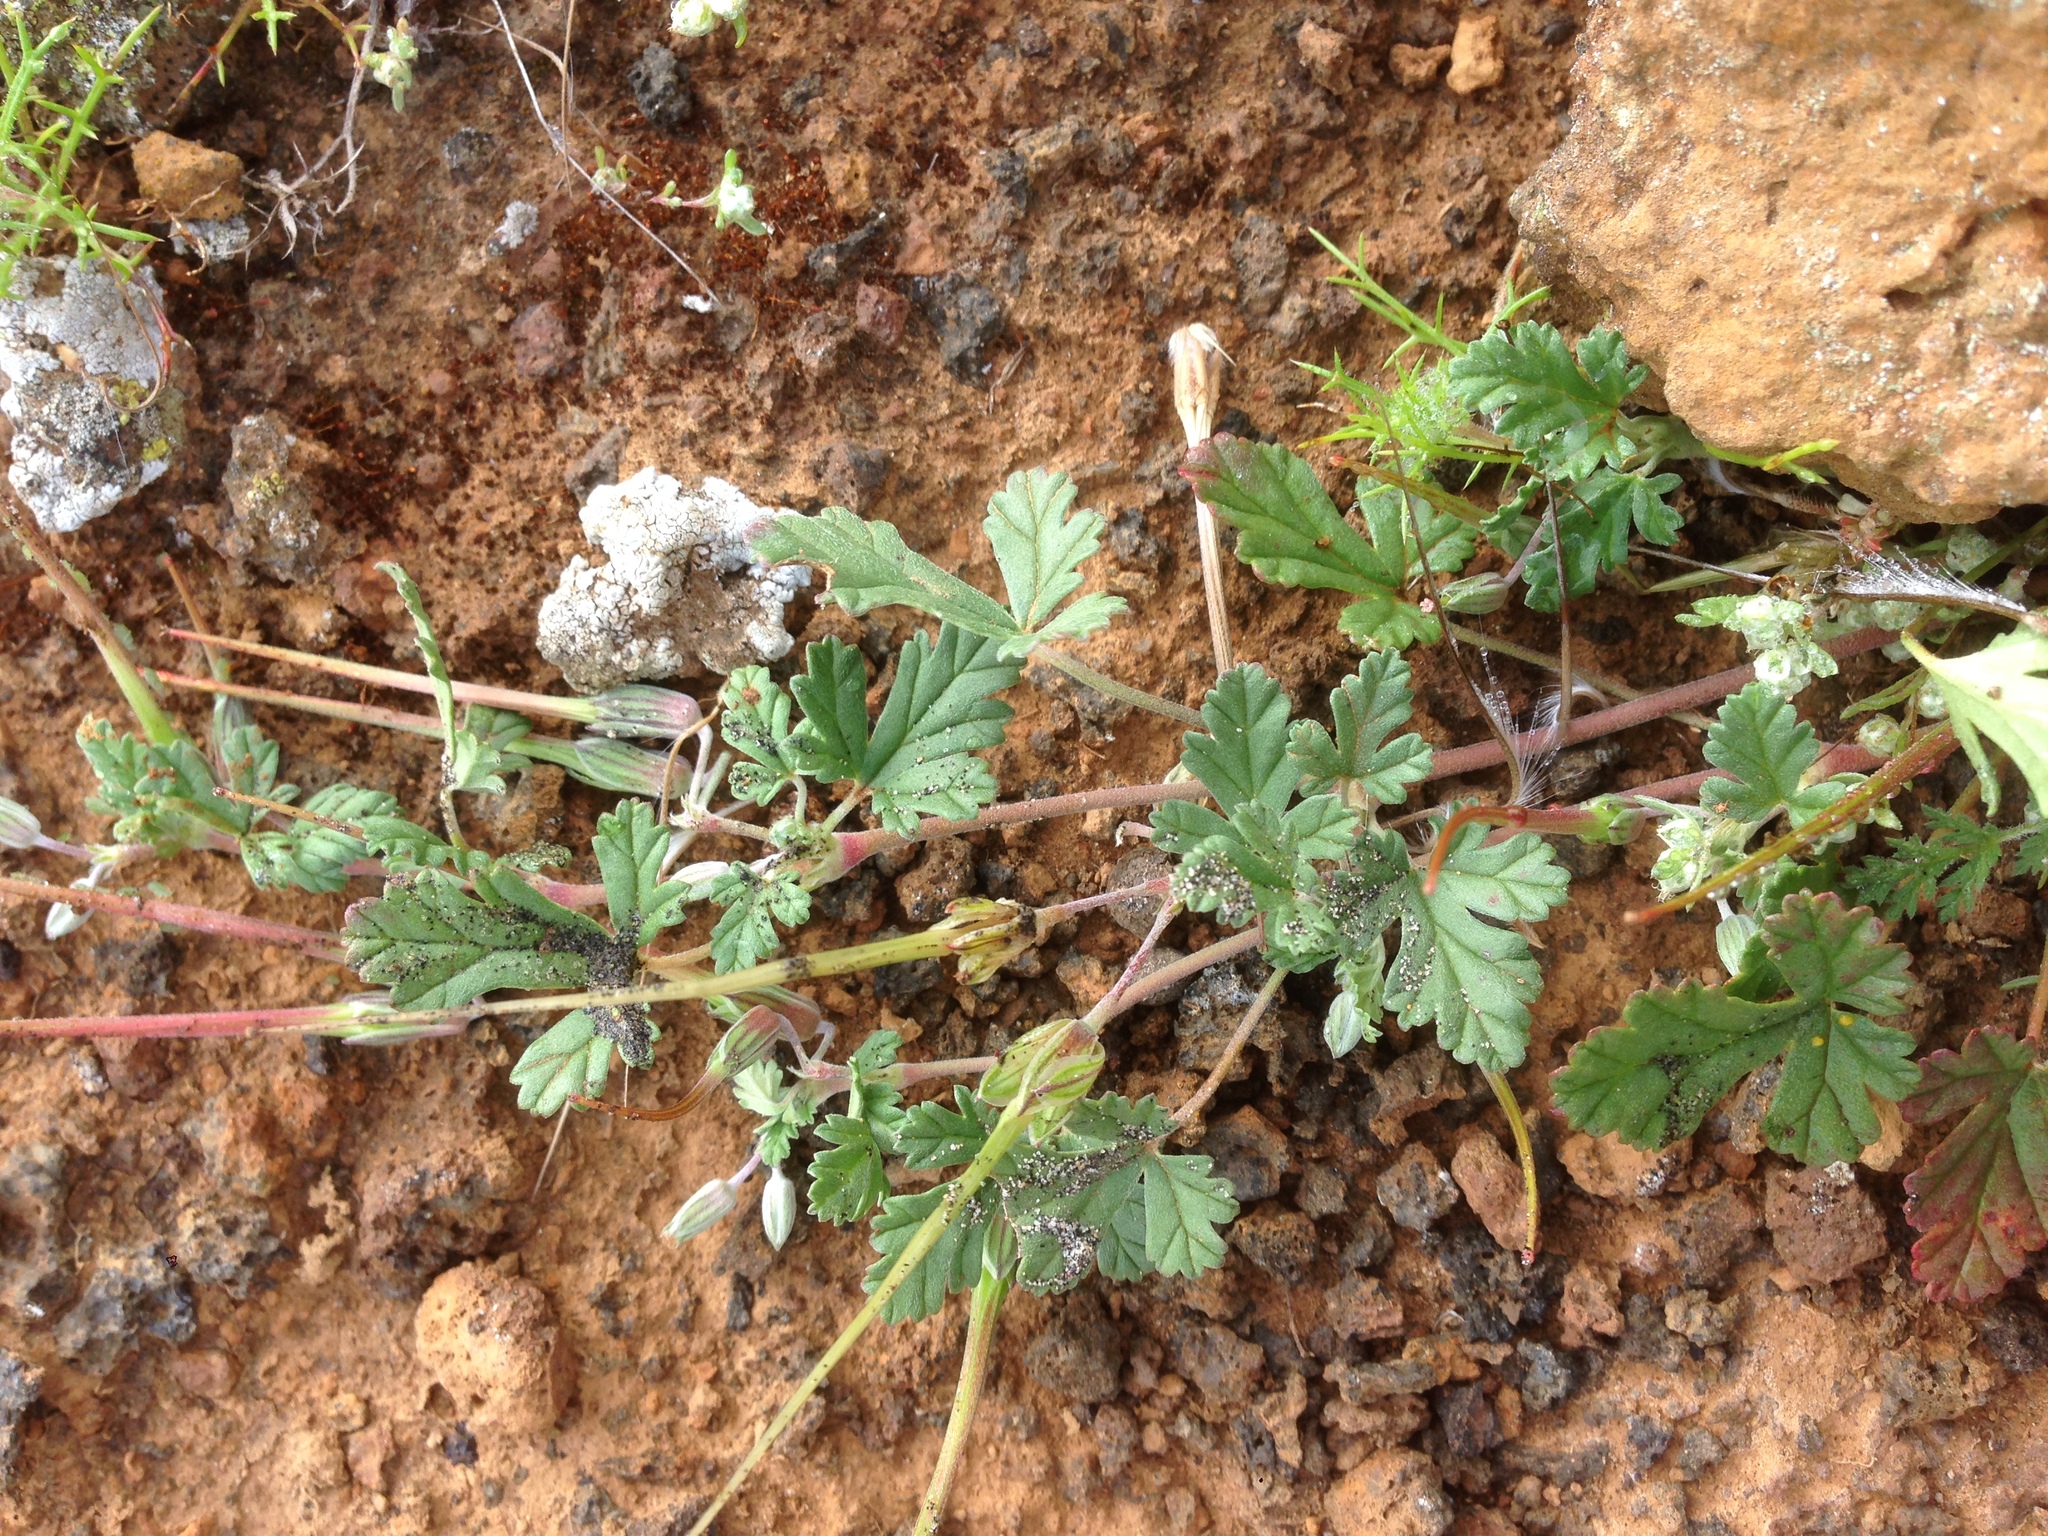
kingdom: Plantae
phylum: Tracheophyta
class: Magnoliopsida
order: Geraniales
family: Geraniaceae
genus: Erodium
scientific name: Erodium texanum
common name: Texas stork's-bill
